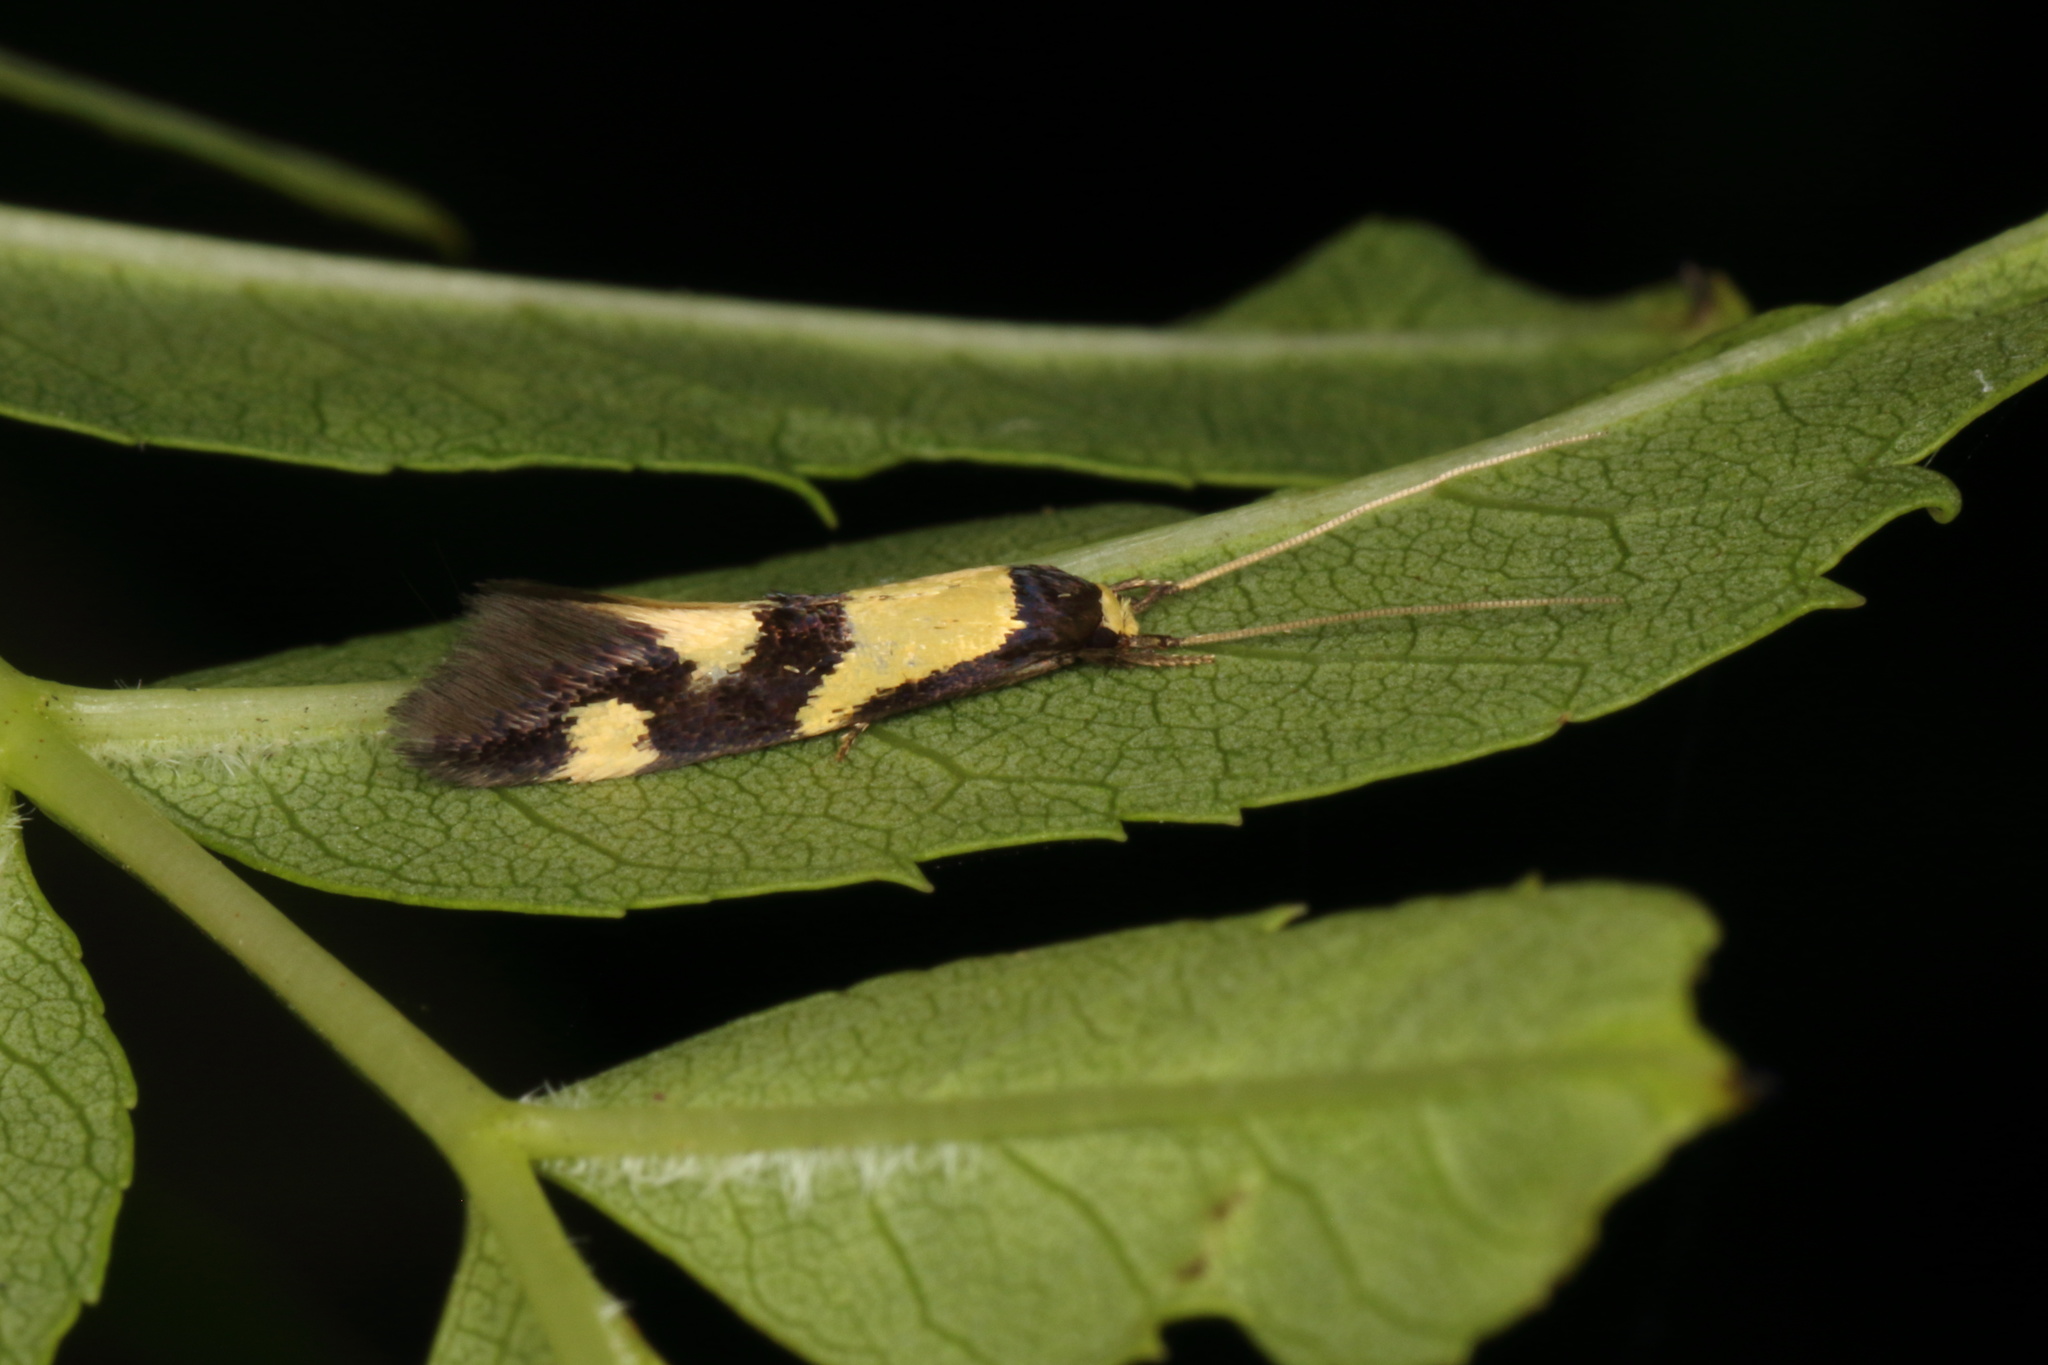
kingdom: Animalia
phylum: Arthropoda
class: Insecta
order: Lepidoptera
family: Tineidae
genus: Opogona
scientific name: Opogona comptella
